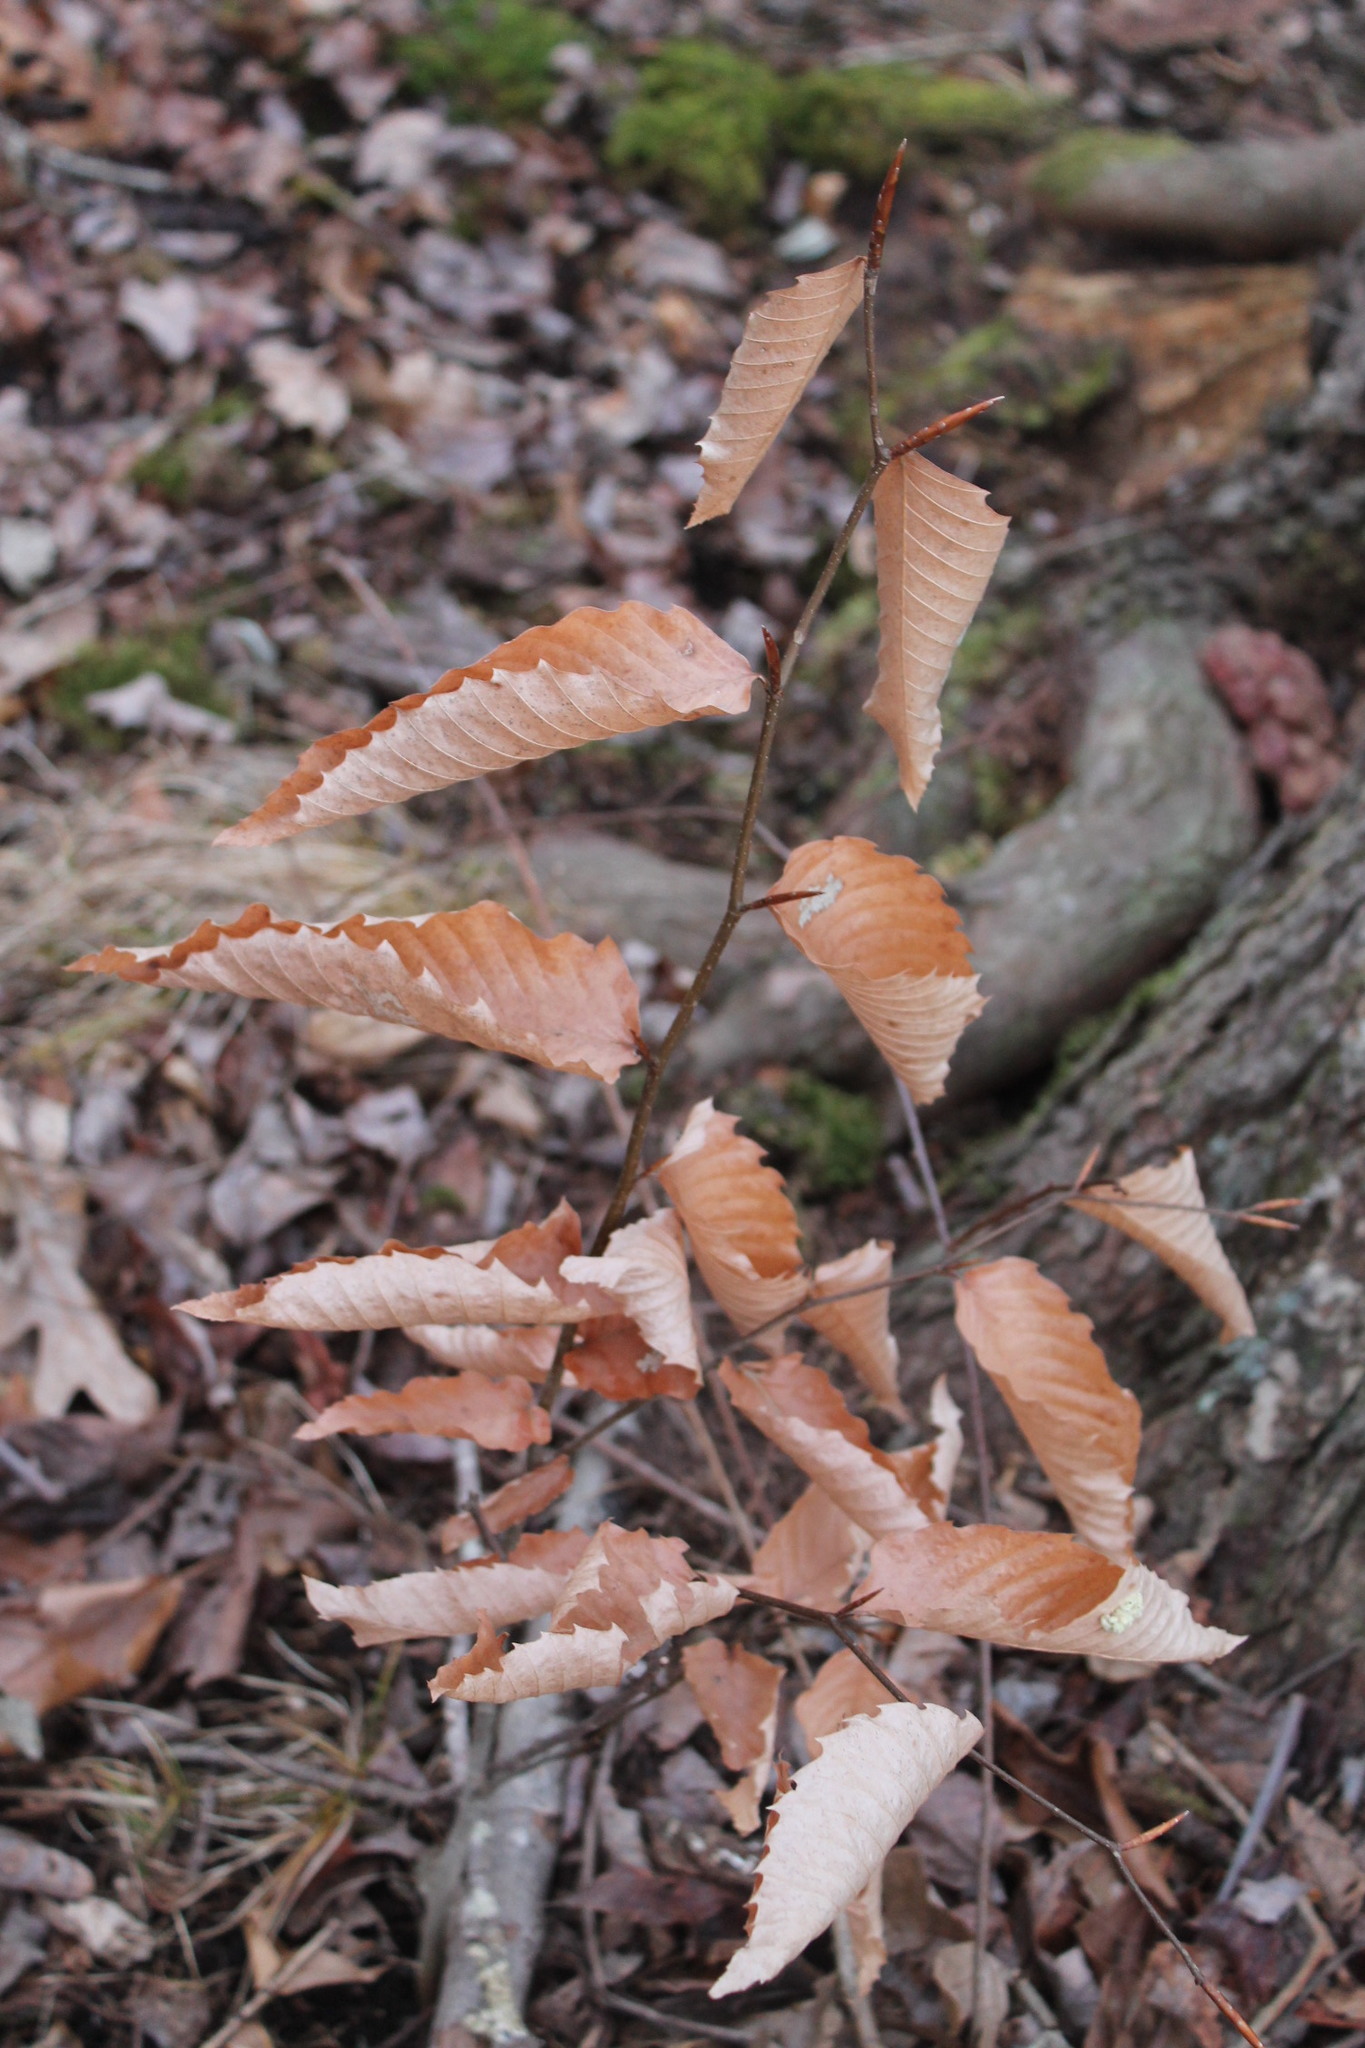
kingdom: Plantae
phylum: Tracheophyta
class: Magnoliopsida
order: Fagales
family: Fagaceae
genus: Fagus
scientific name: Fagus grandifolia
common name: American beech
